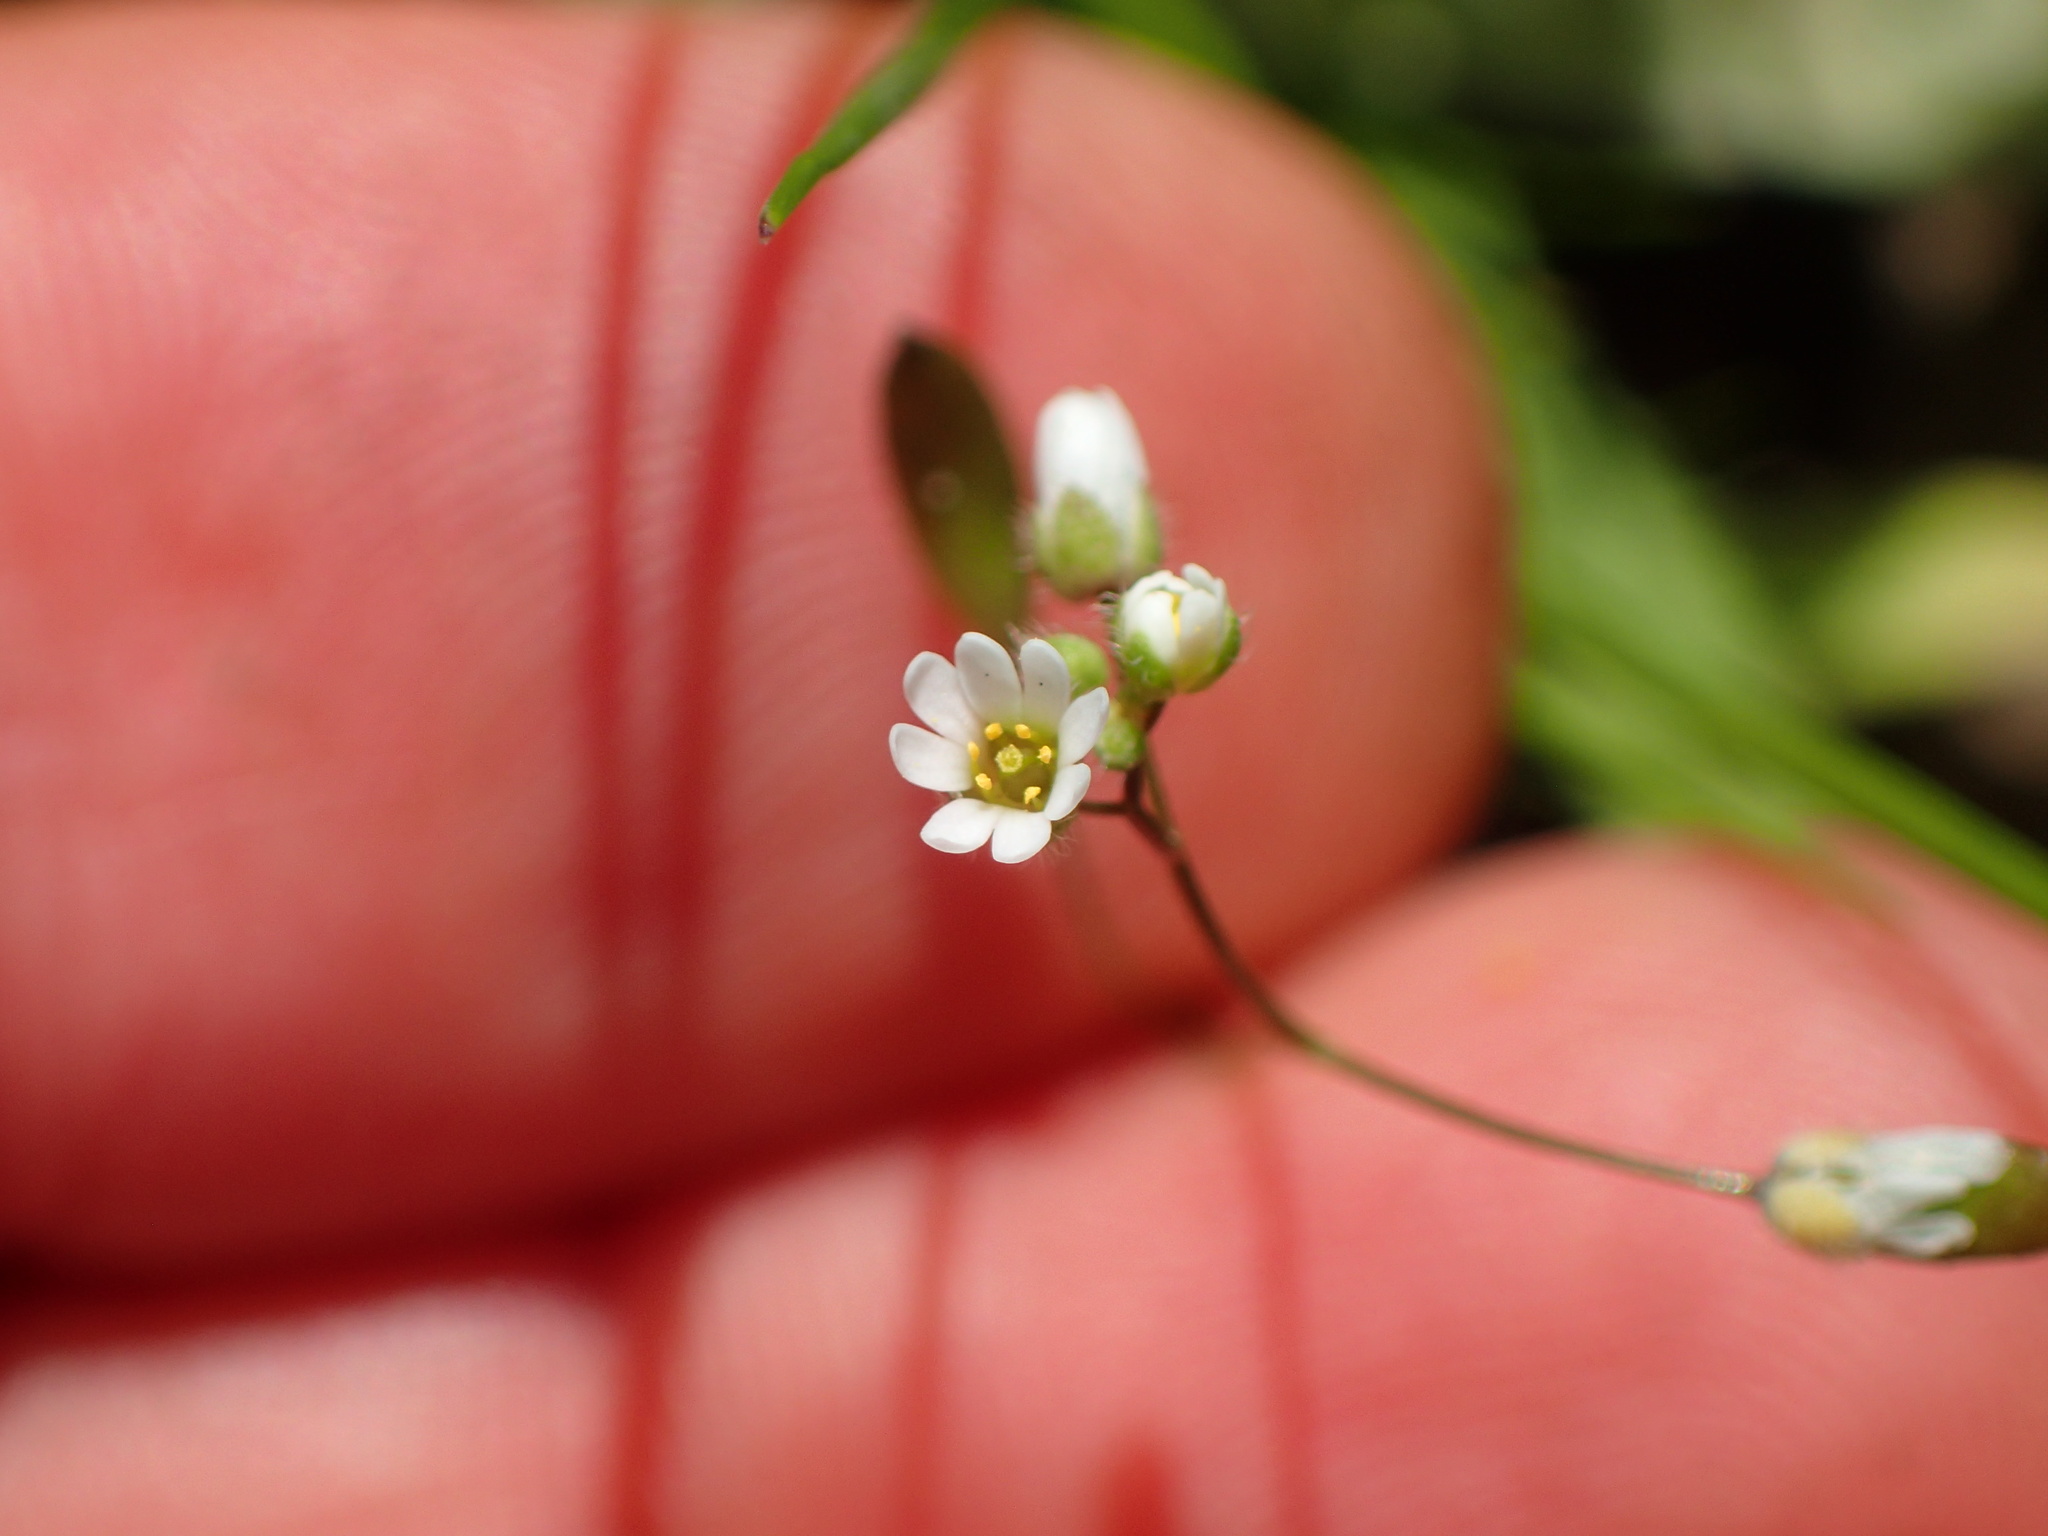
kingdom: Plantae
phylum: Tracheophyta
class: Magnoliopsida
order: Brassicales
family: Brassicaceae
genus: Draba
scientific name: Draba verna
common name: Spring draba
